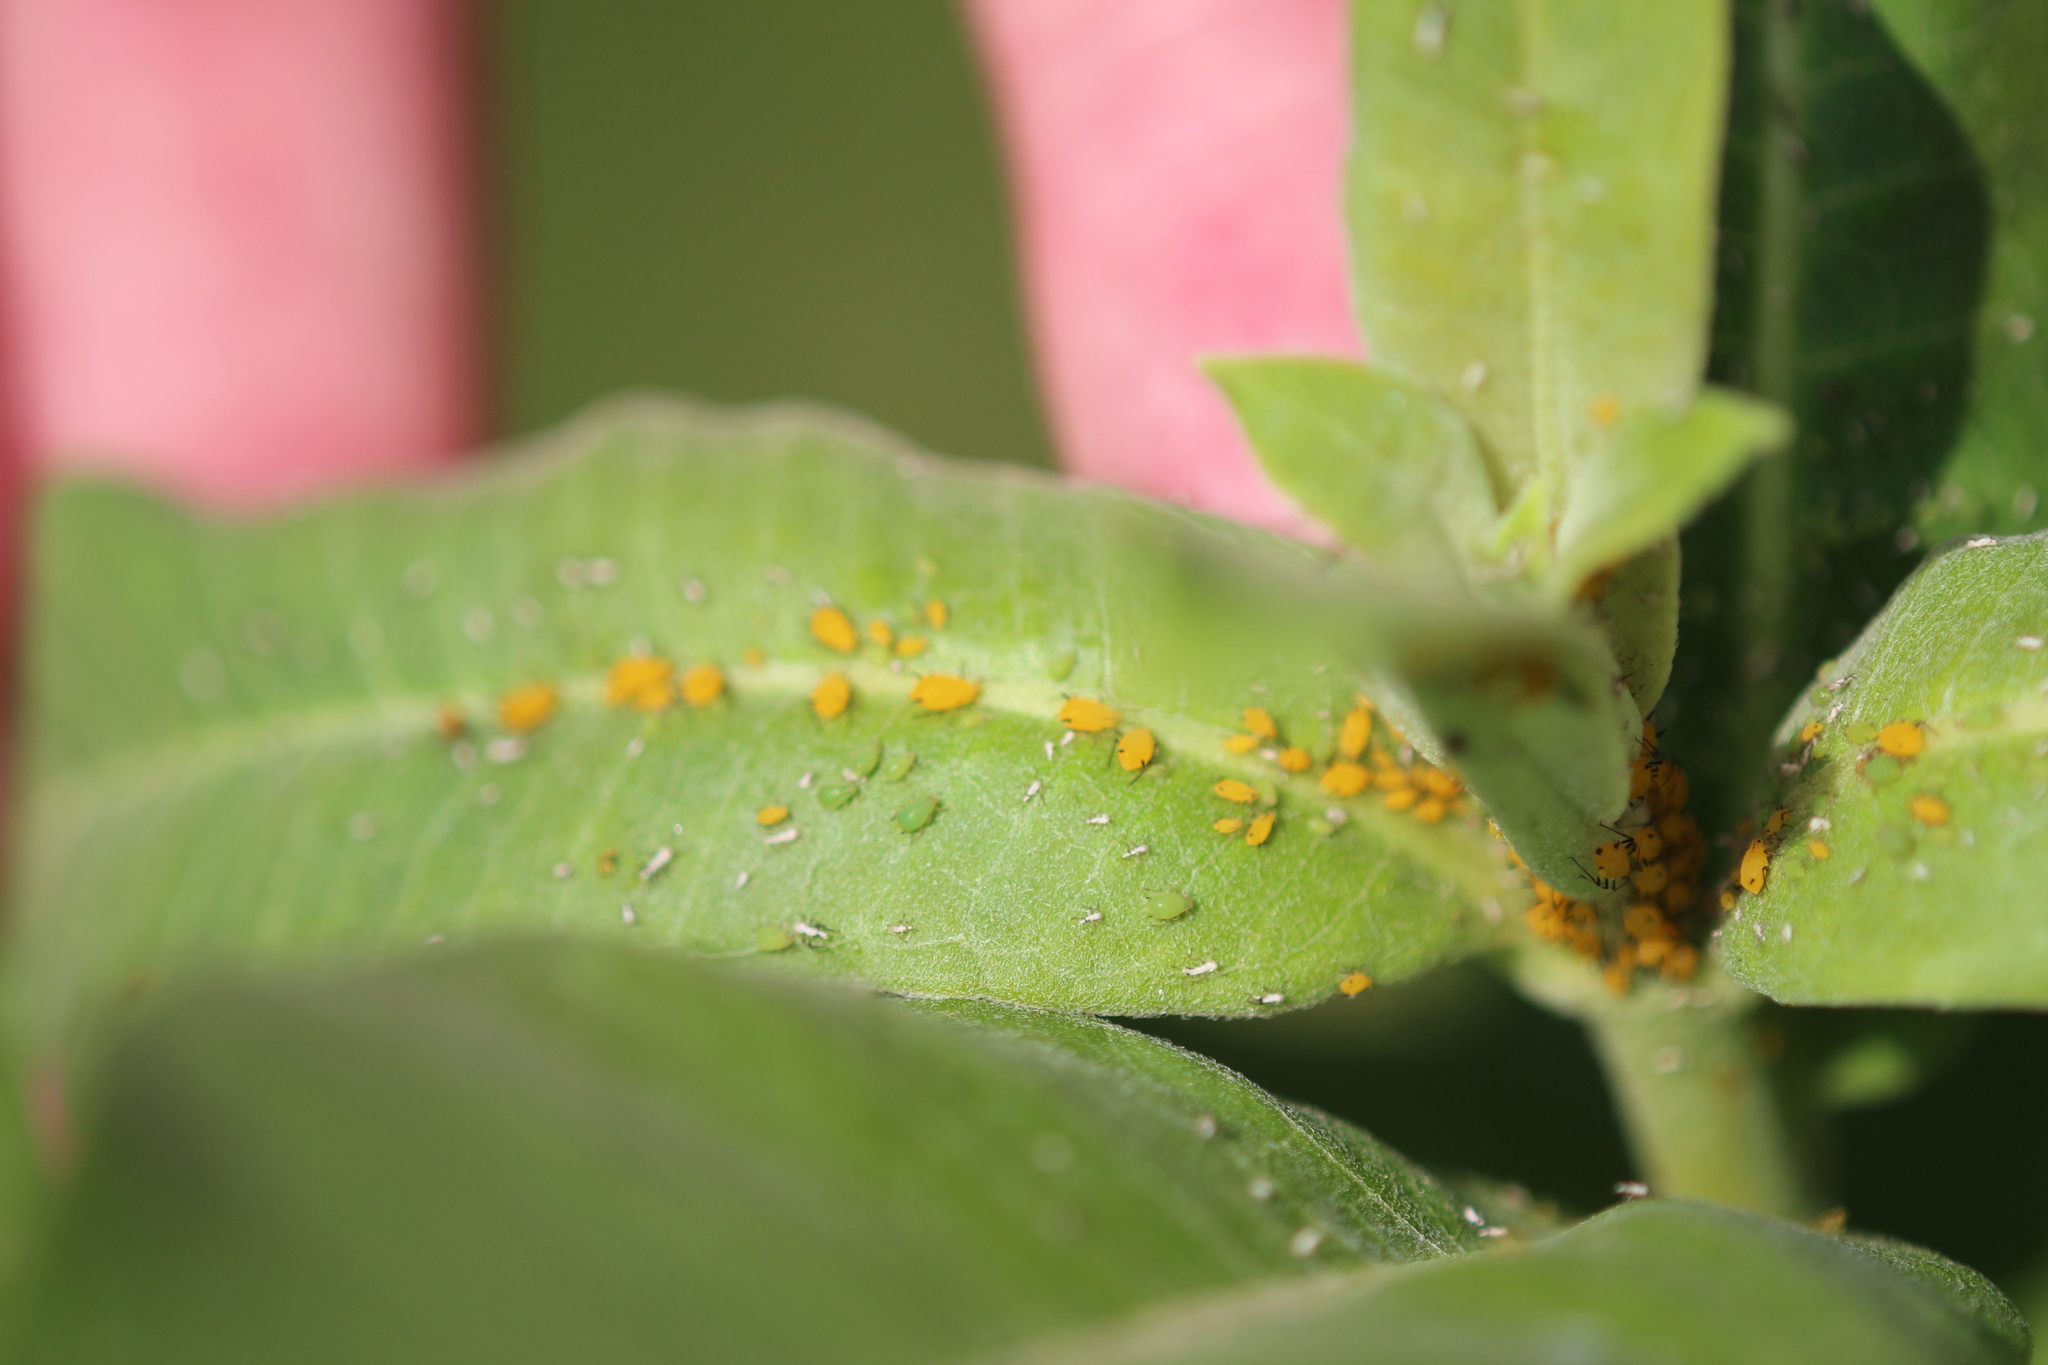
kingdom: Animalia
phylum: Arthropoda
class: Insecta
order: Hemiptera
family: Aphididae
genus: Aphis
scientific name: Aphis spiraecola
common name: Spirea aphid
